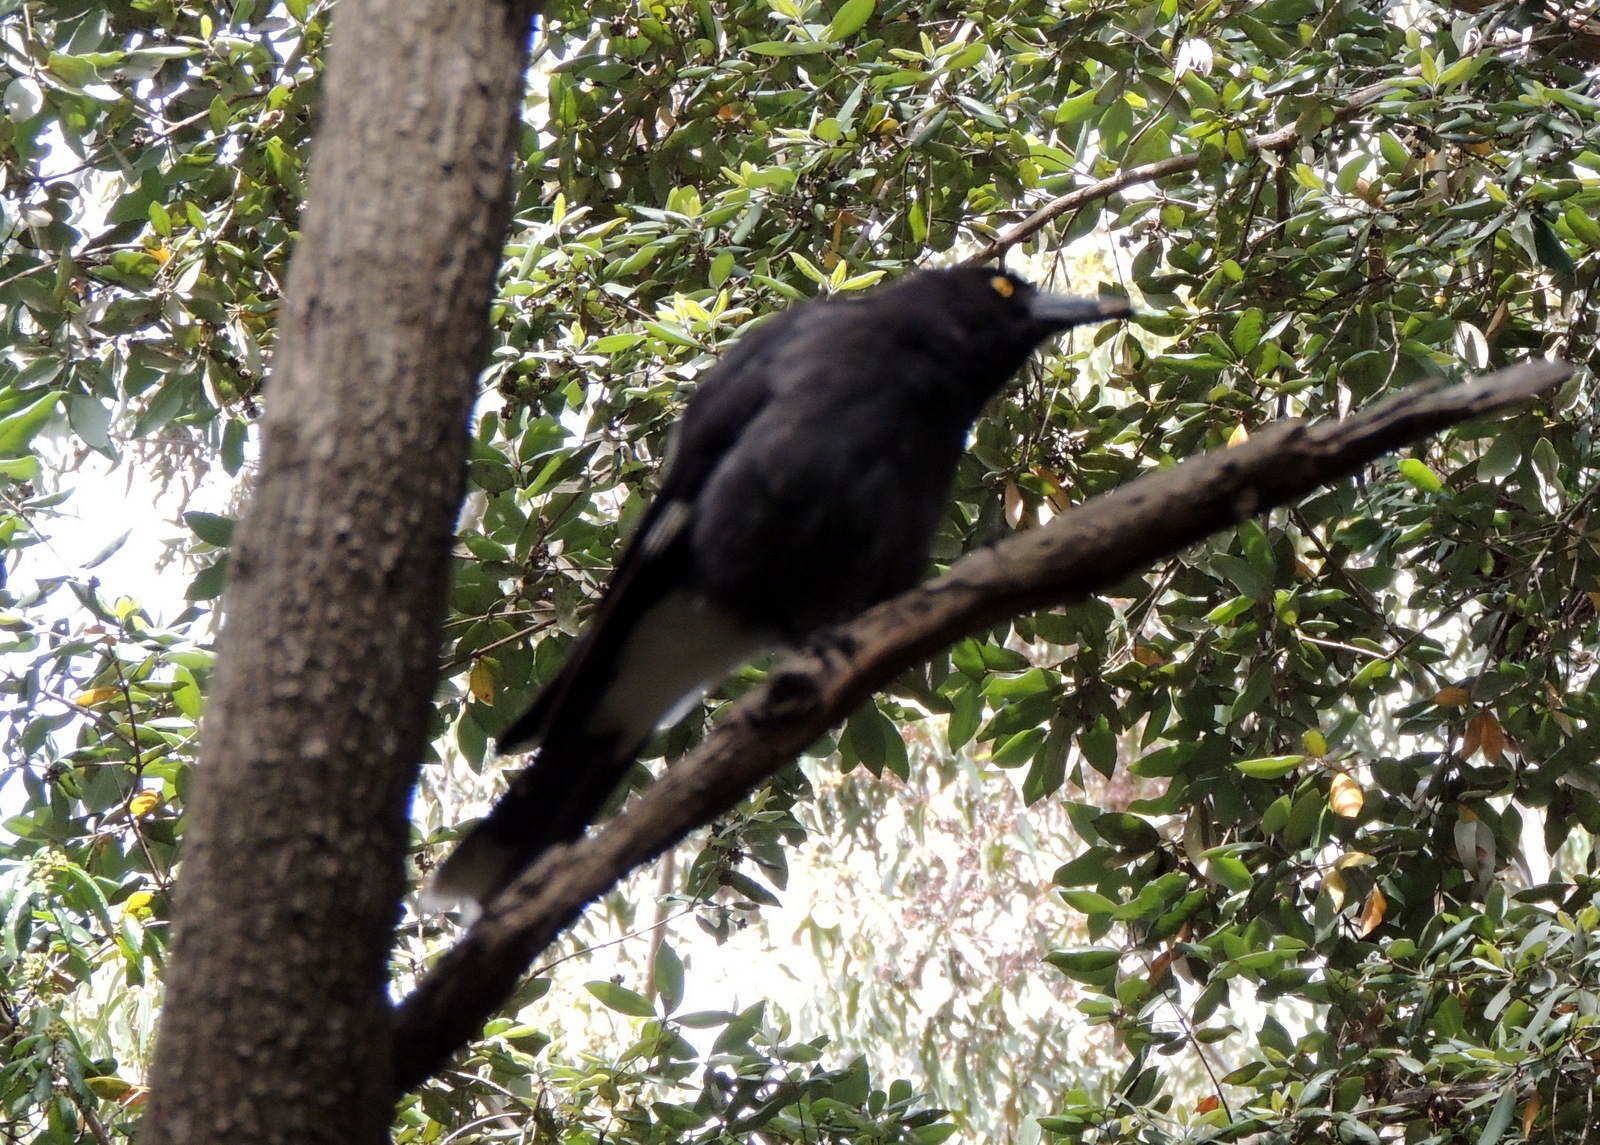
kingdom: Animalia
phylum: Chordata
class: Aves
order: Passeriformes
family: Cracticidae
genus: Strepera
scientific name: Strepera graculina
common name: Pied currawong
